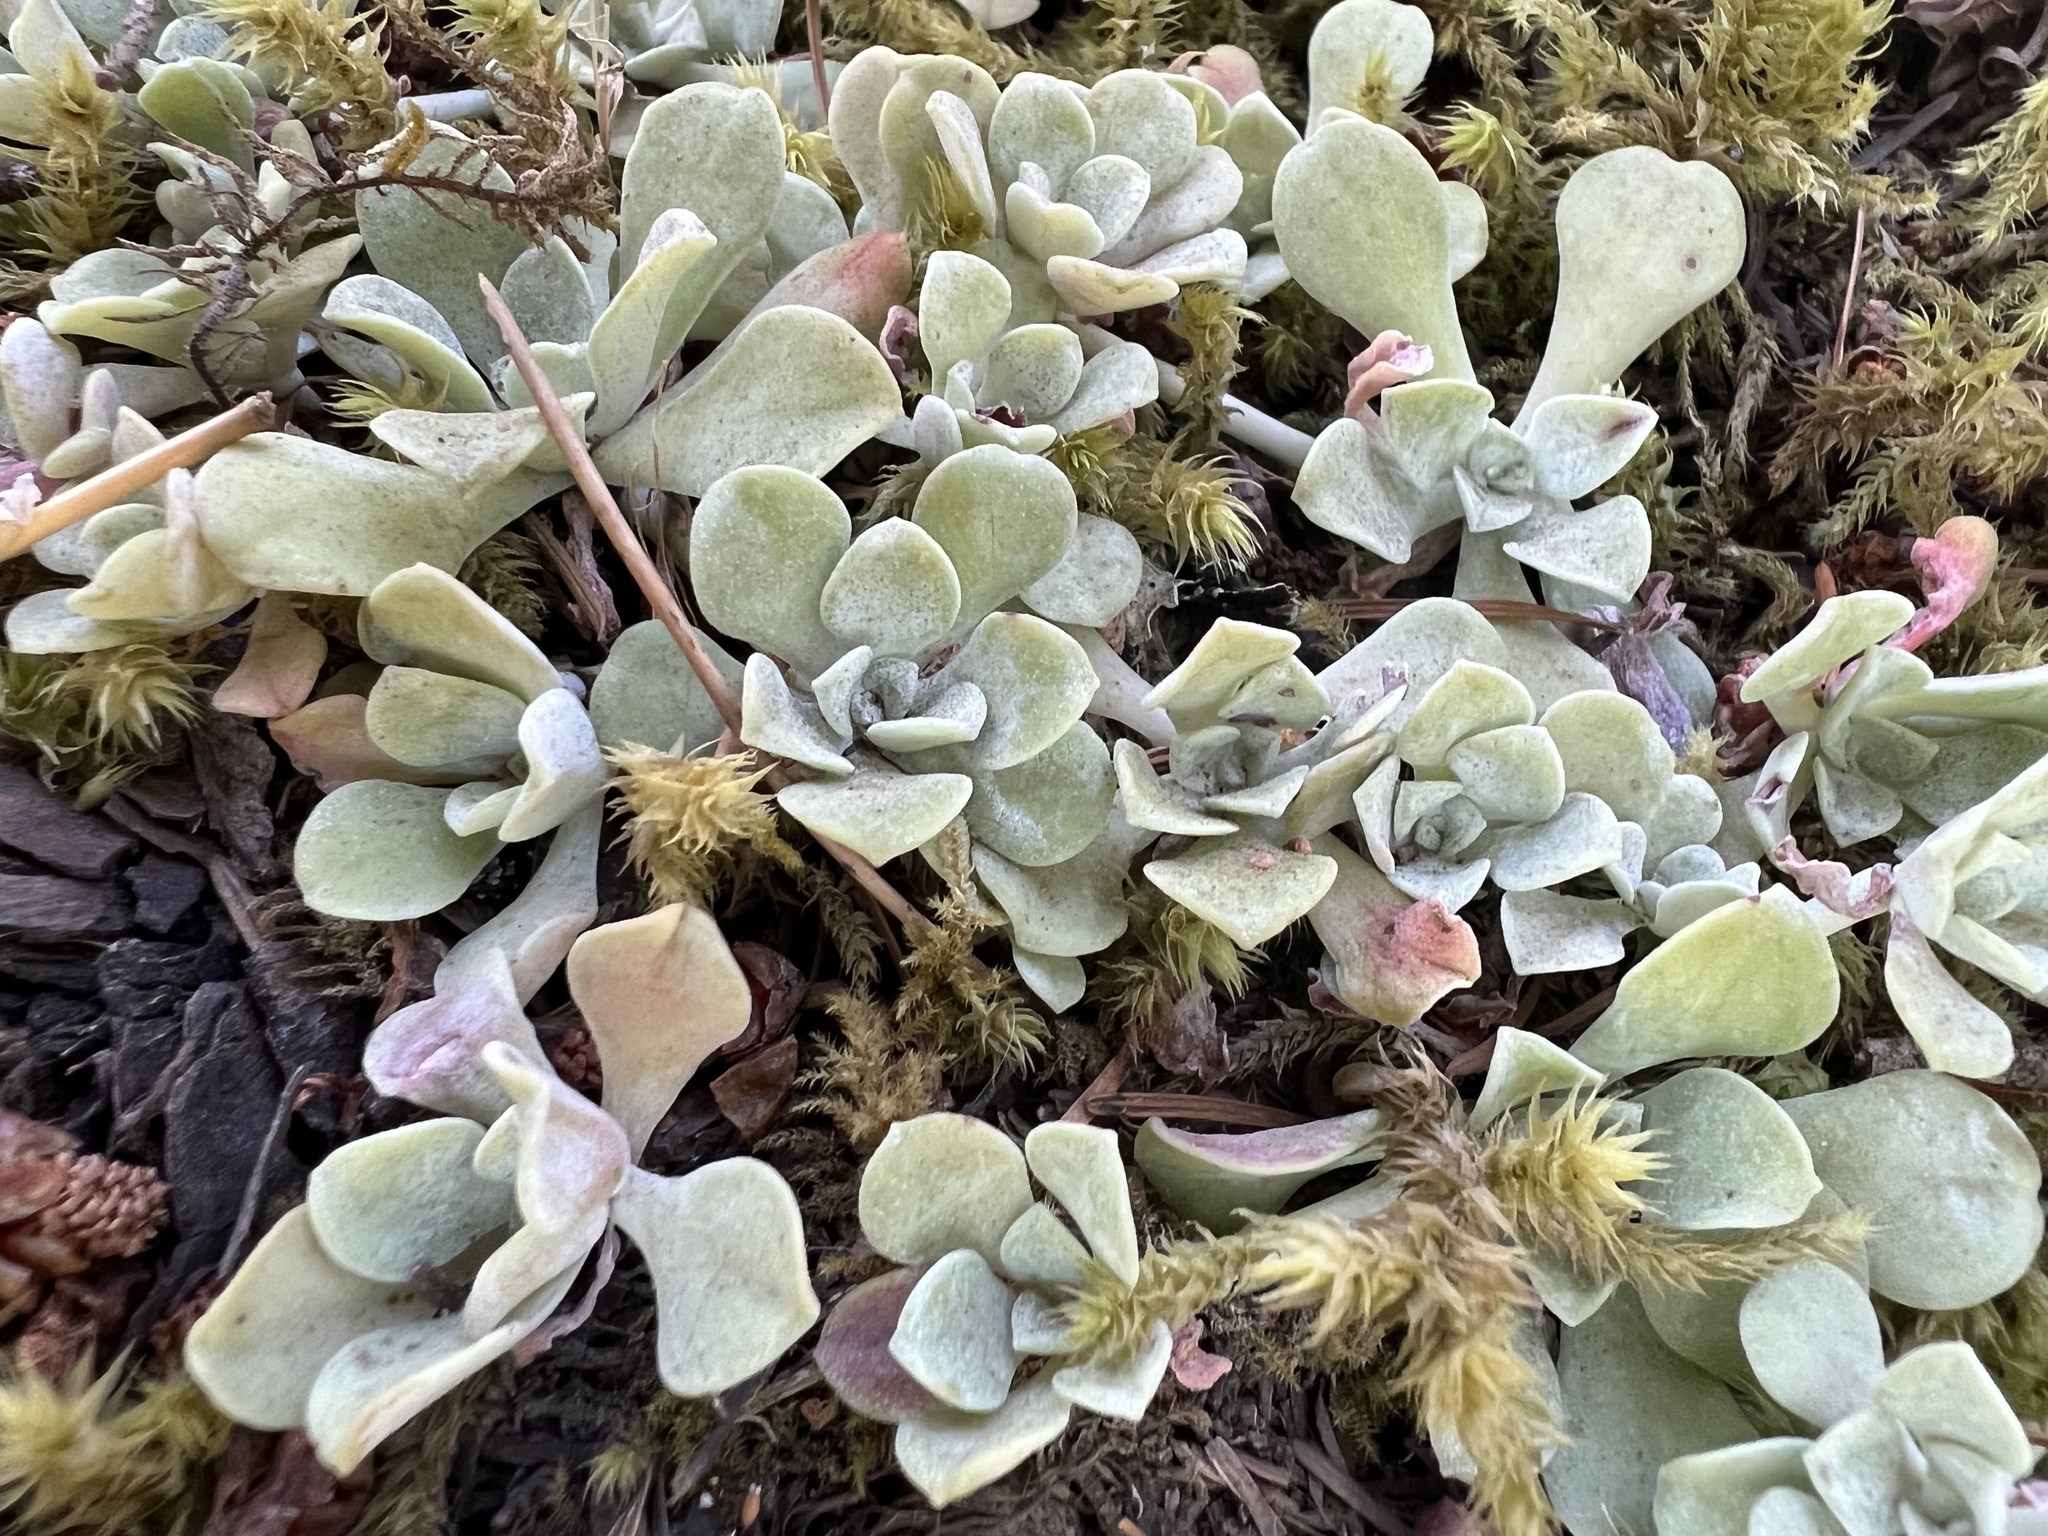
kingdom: Plantae
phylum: Tracheophyta
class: Magnoliopsida
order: Saxifragales
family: Crassulaceae
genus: Sedum
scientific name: Sedum spathulifolium
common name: Colorado stonecrop
